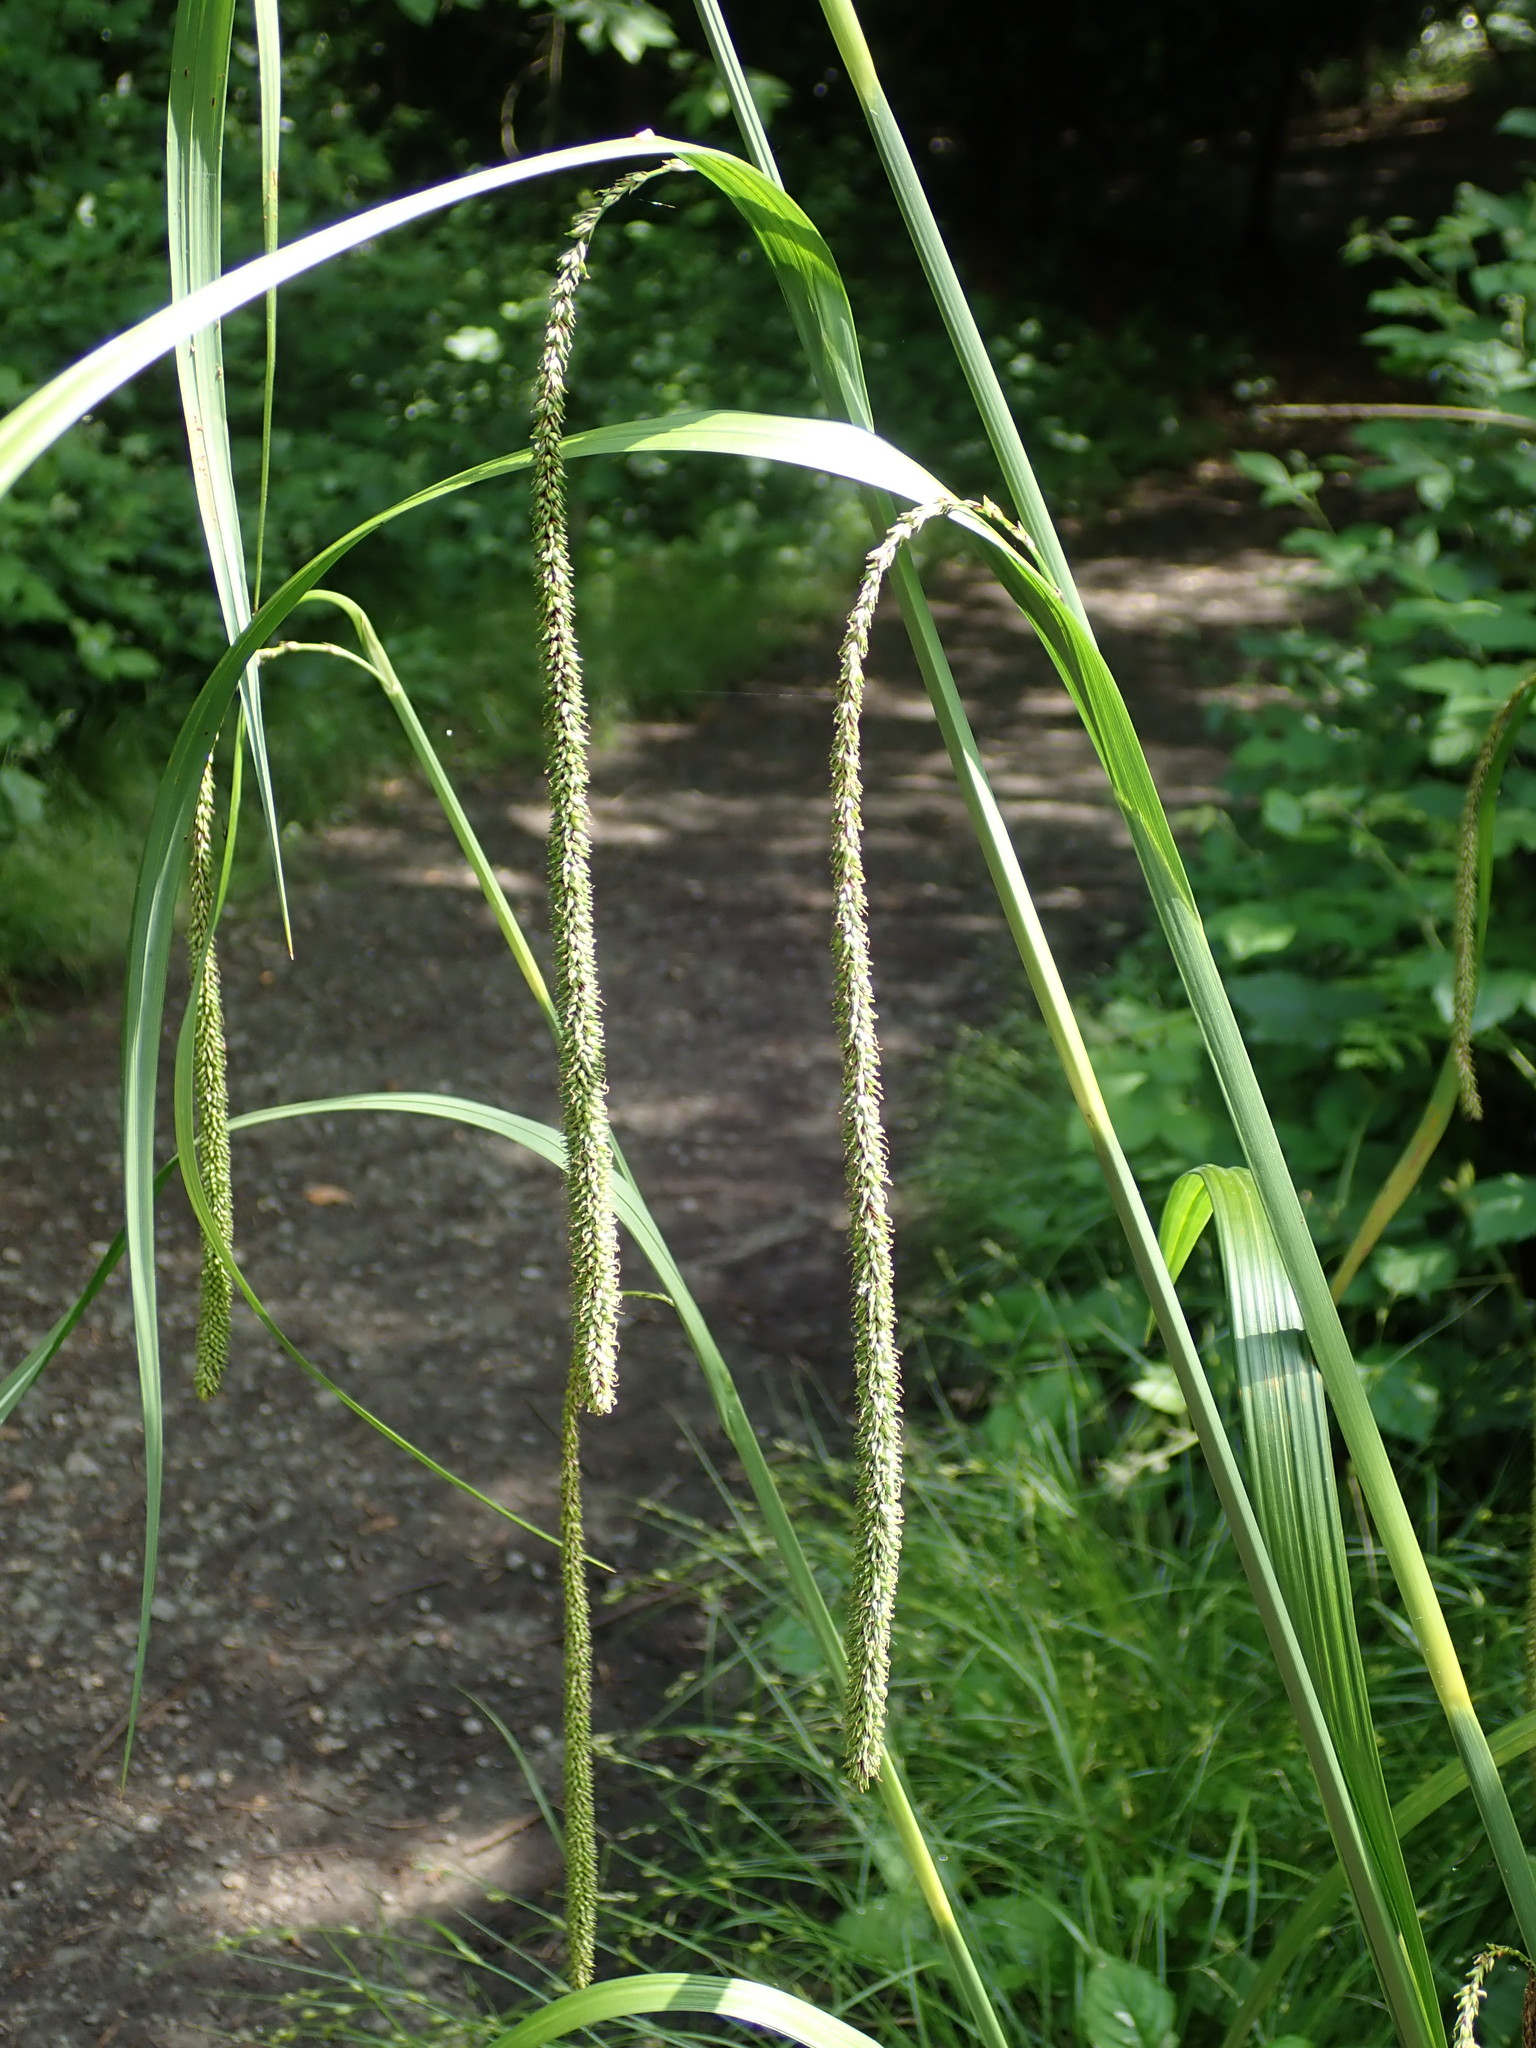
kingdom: Plantae
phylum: Tracheophyta
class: Liliopsida
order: Poales
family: Cyperaceae
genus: Carex
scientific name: Carex pendula
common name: Pendulous sedge
